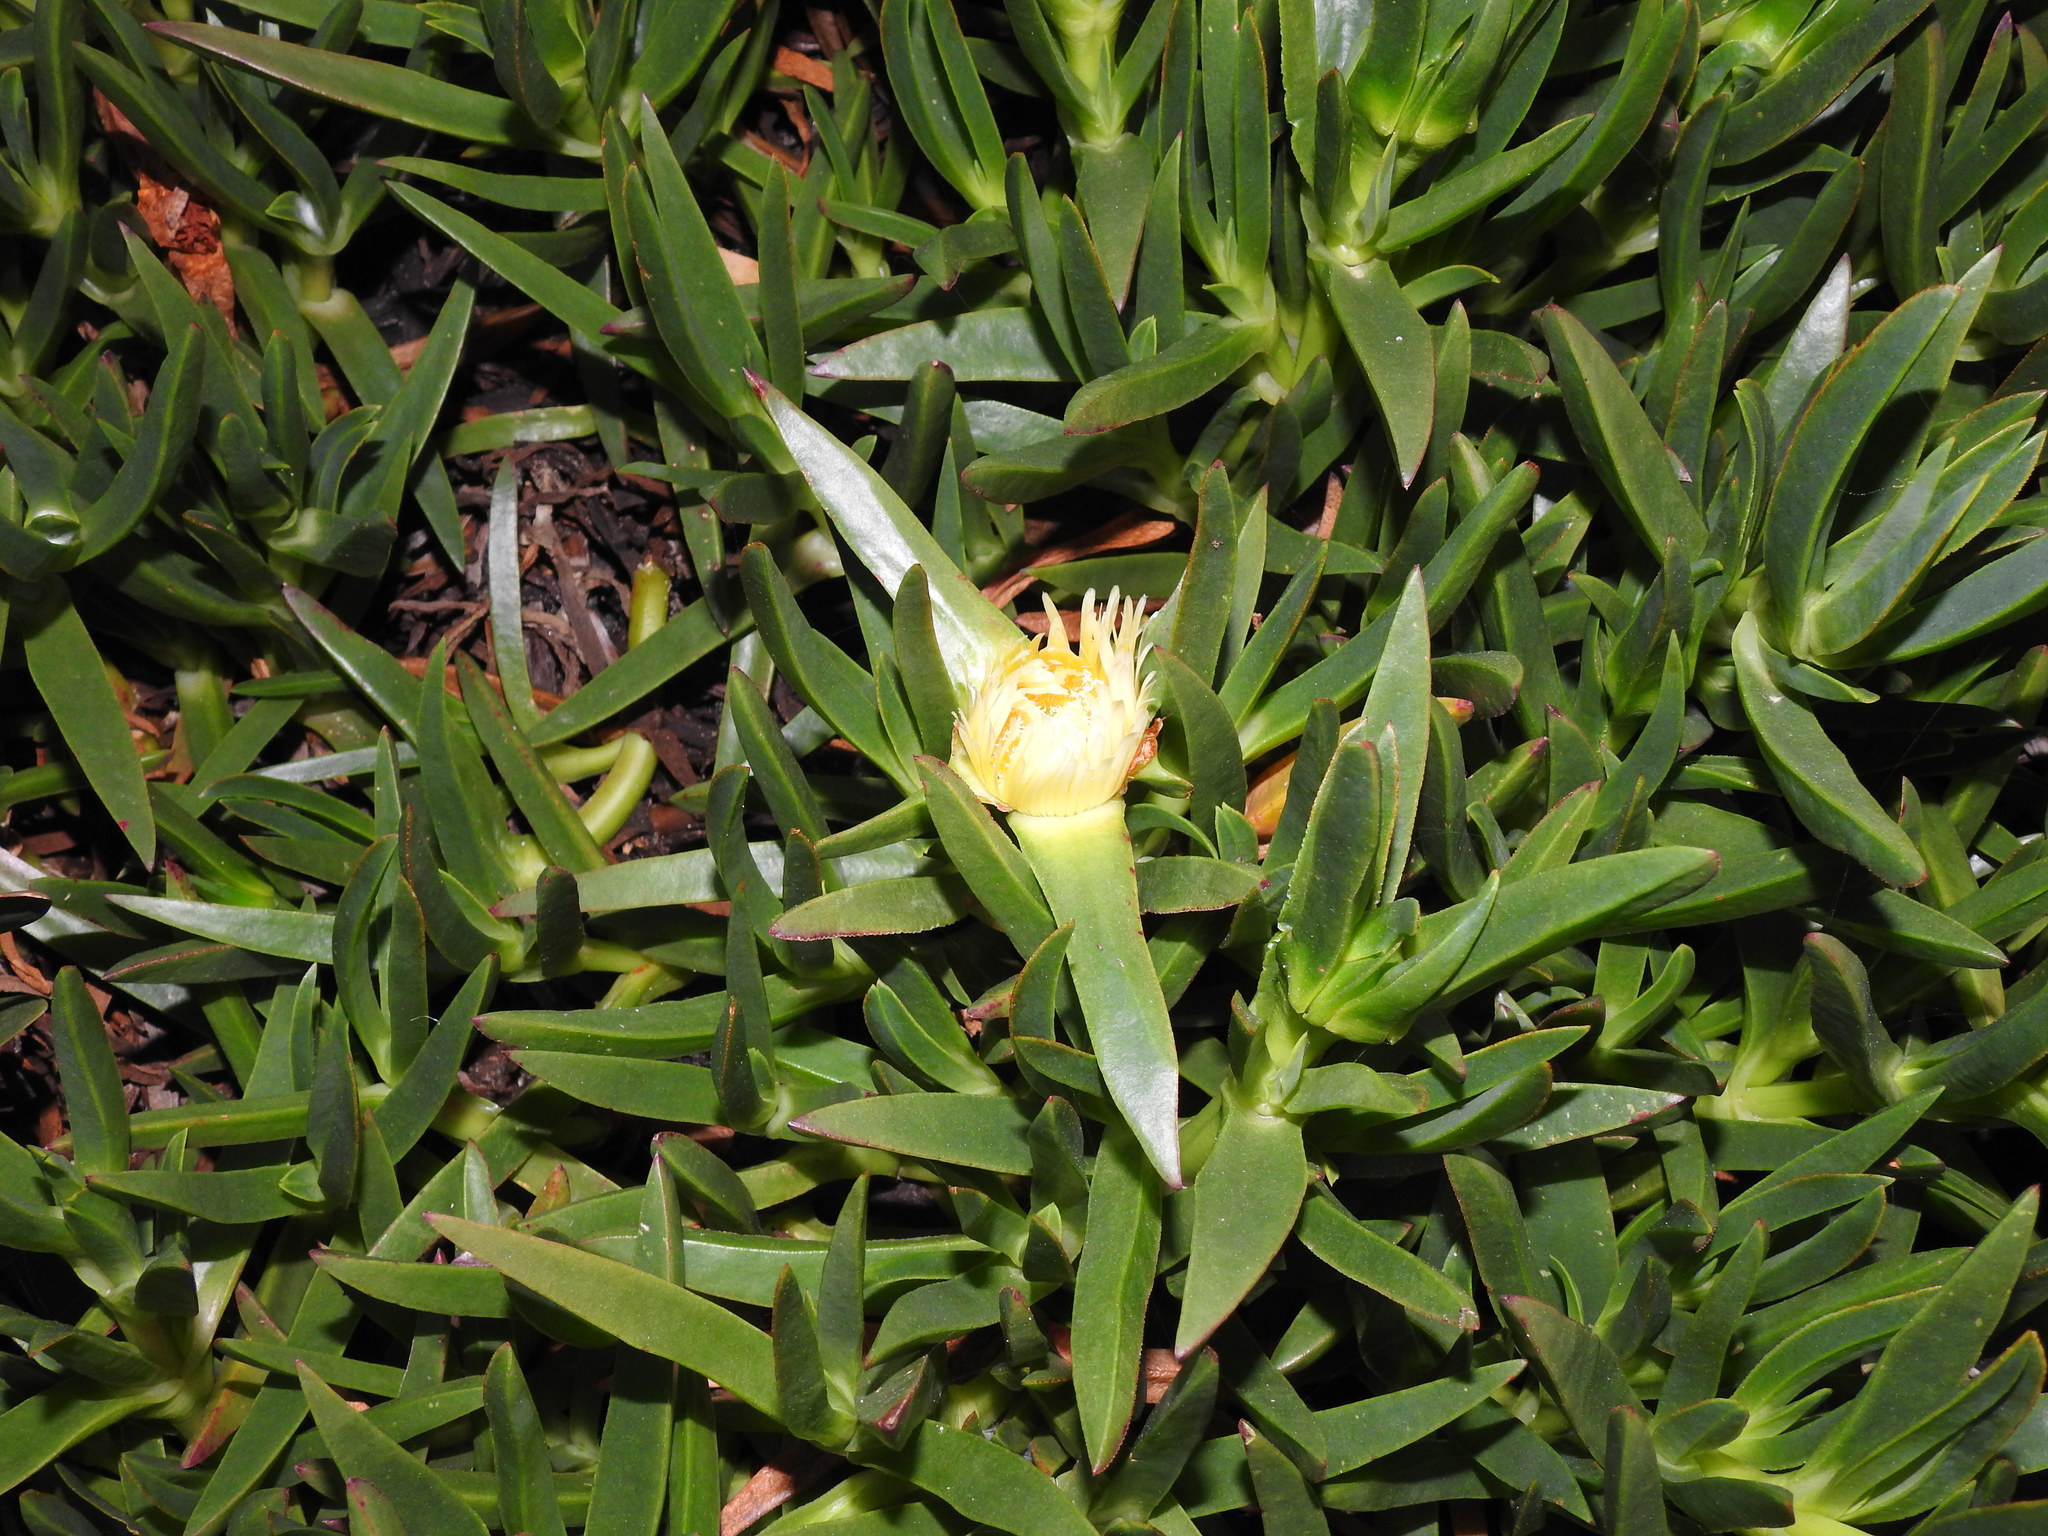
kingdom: Plantae
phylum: Tracheophyta
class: Magnoliopsida
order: Caryophyllales
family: Aizoaceae
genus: Carpobrotus
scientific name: Carpobrotus edulis
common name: Hottentot-fig
